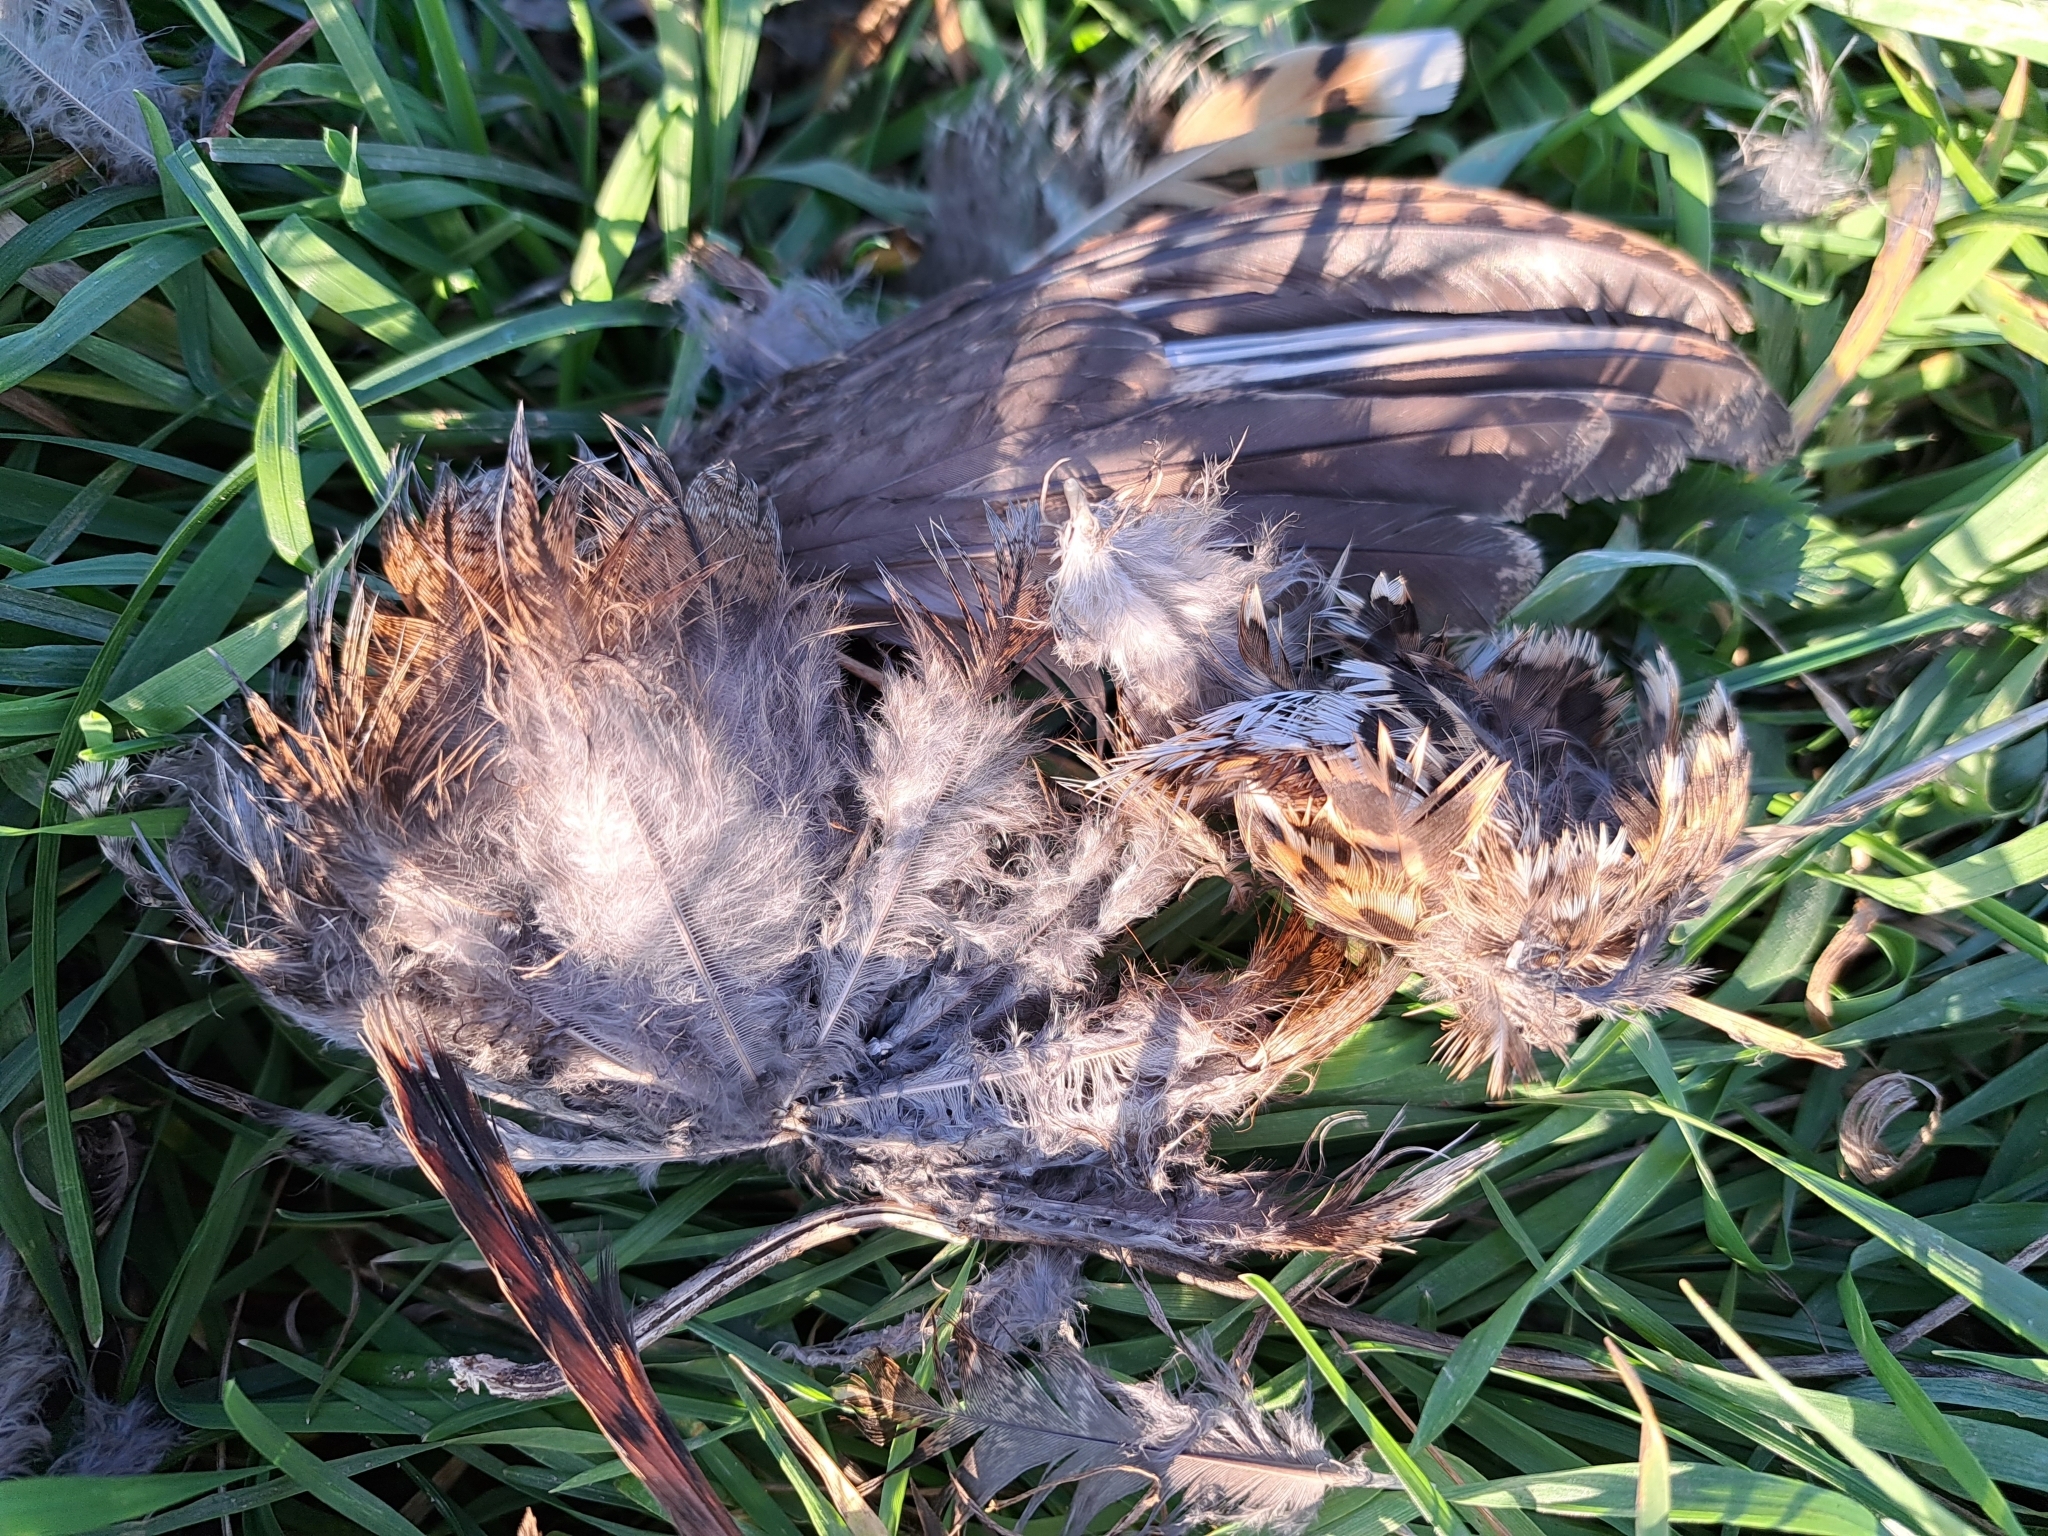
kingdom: Animalia
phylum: Chordata
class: Aves
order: Galliformes
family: Phasianidae
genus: Lyrurus
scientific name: Lyrurus tetrix
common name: Black grouse
